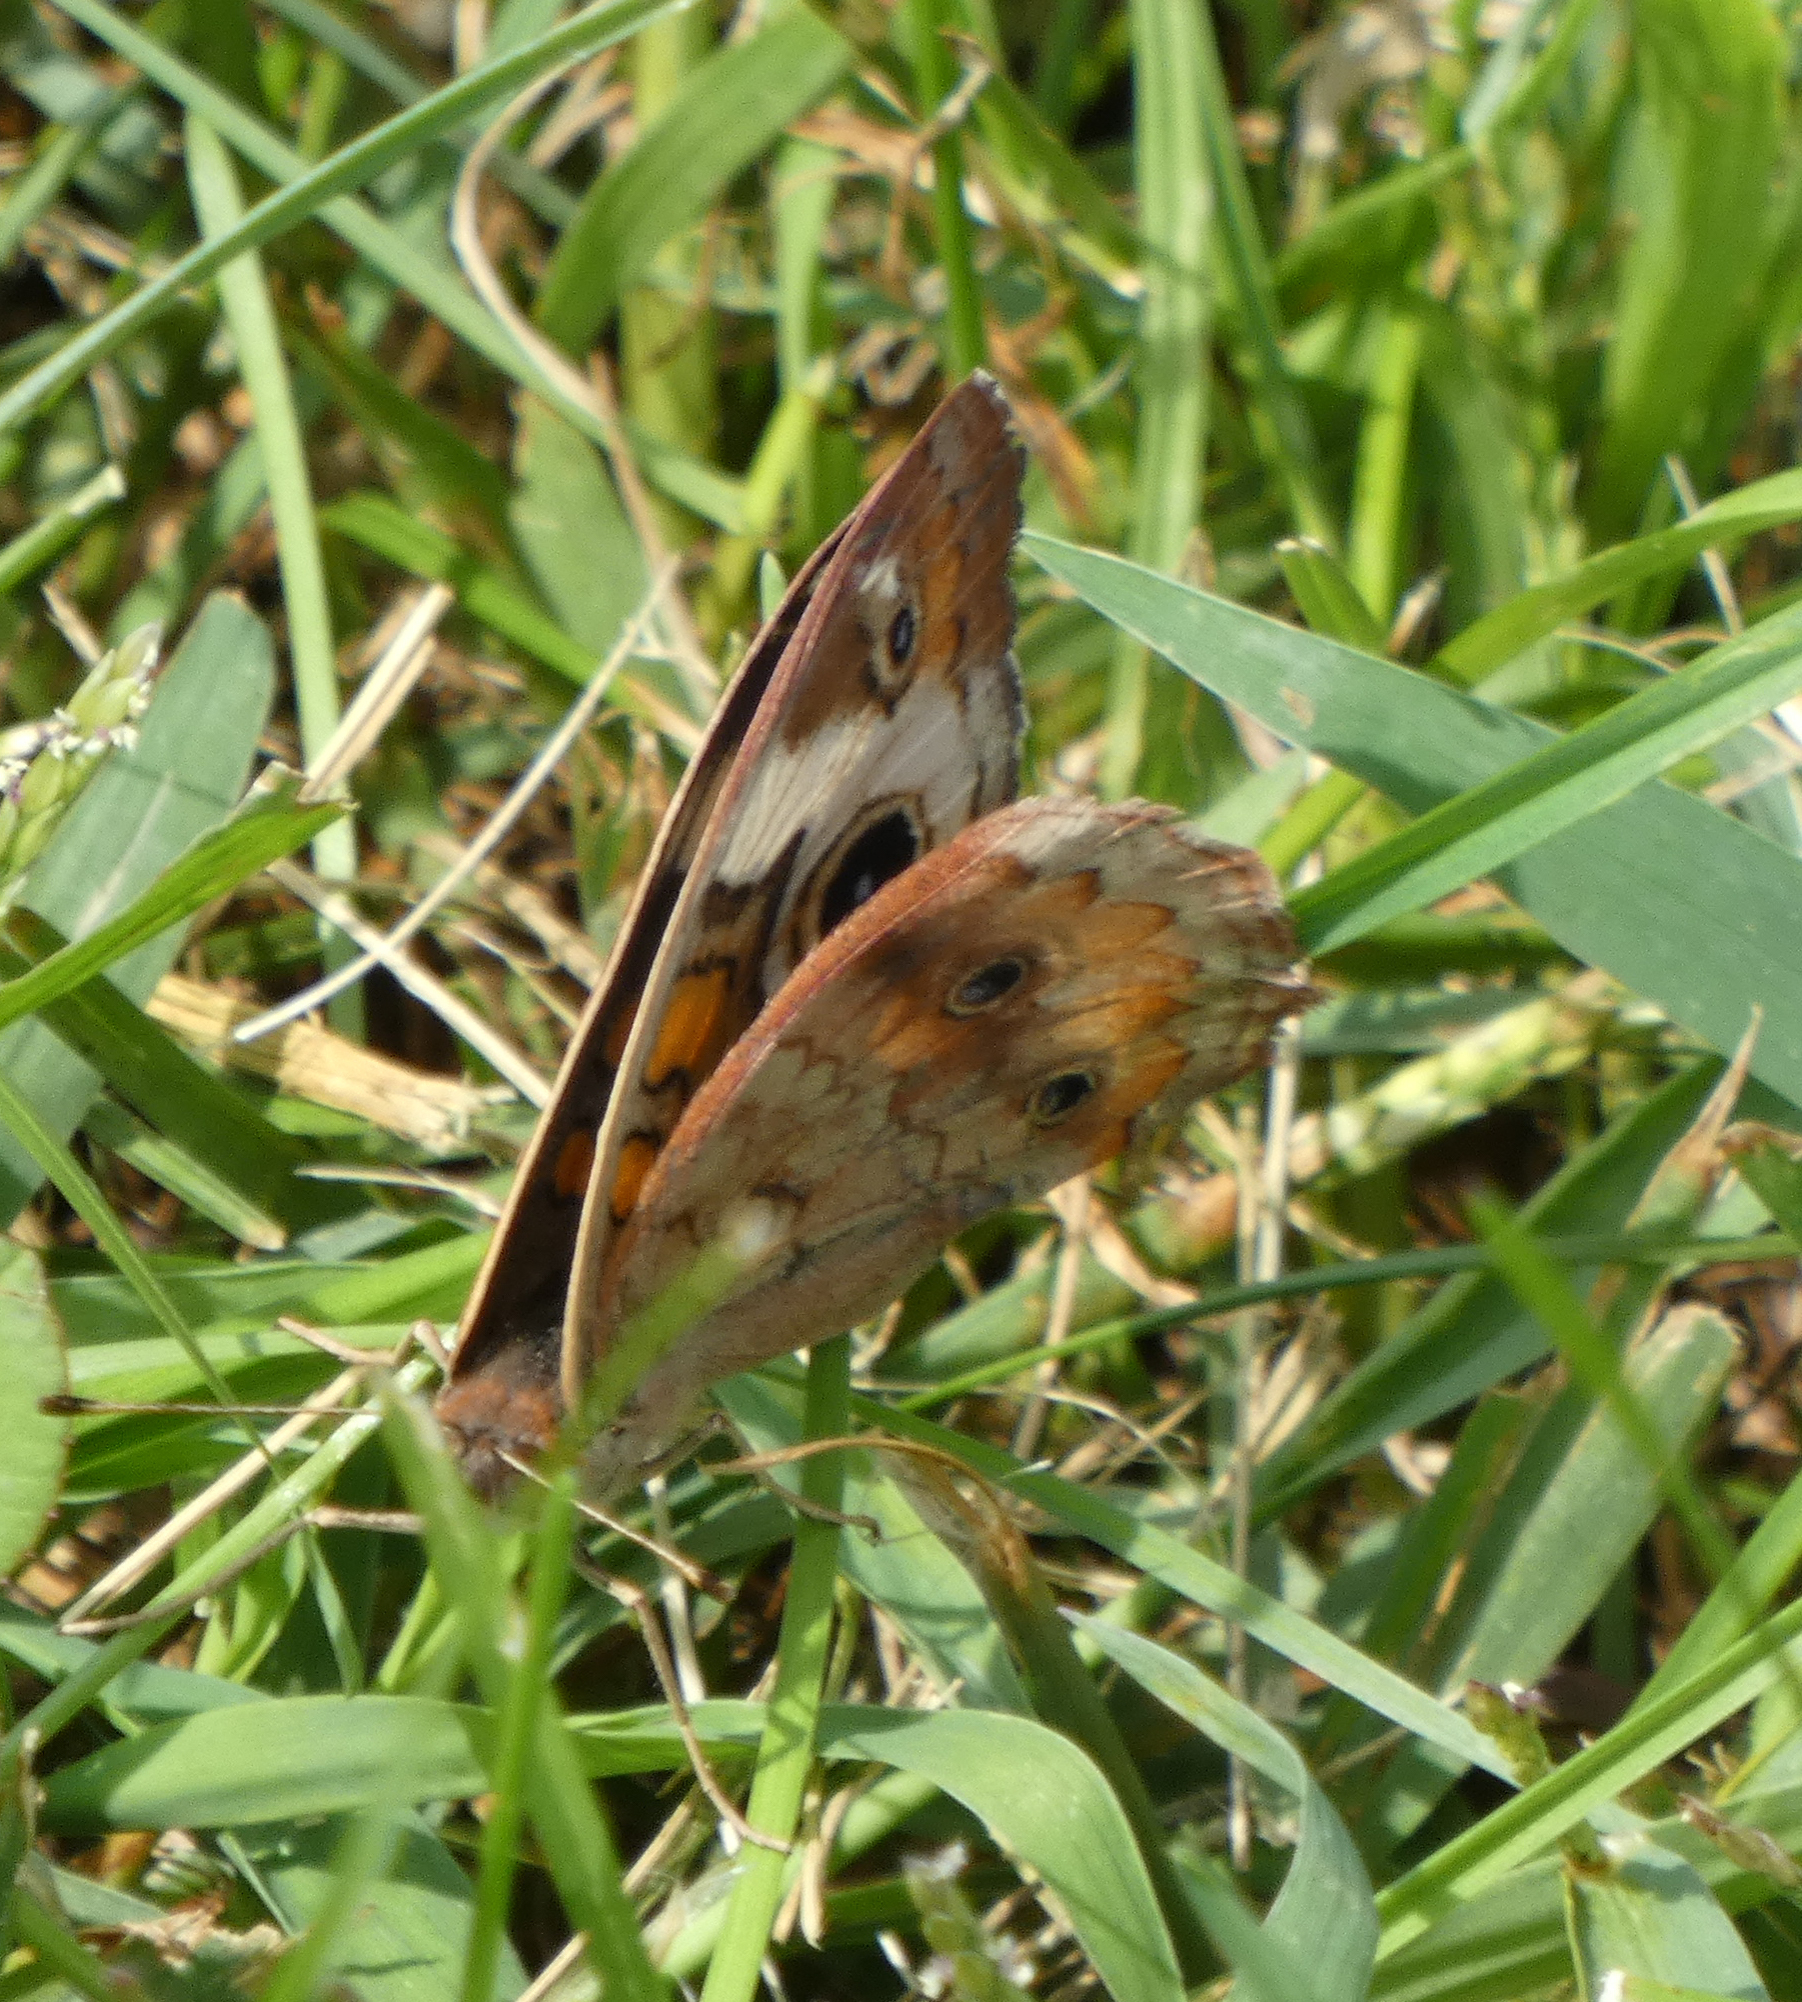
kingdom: Animalia
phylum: Arthropoda
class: Insecta
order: Lepidoptera
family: Nymphalidae
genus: Junonia
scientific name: Junonia coenia
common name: Common buckeye
